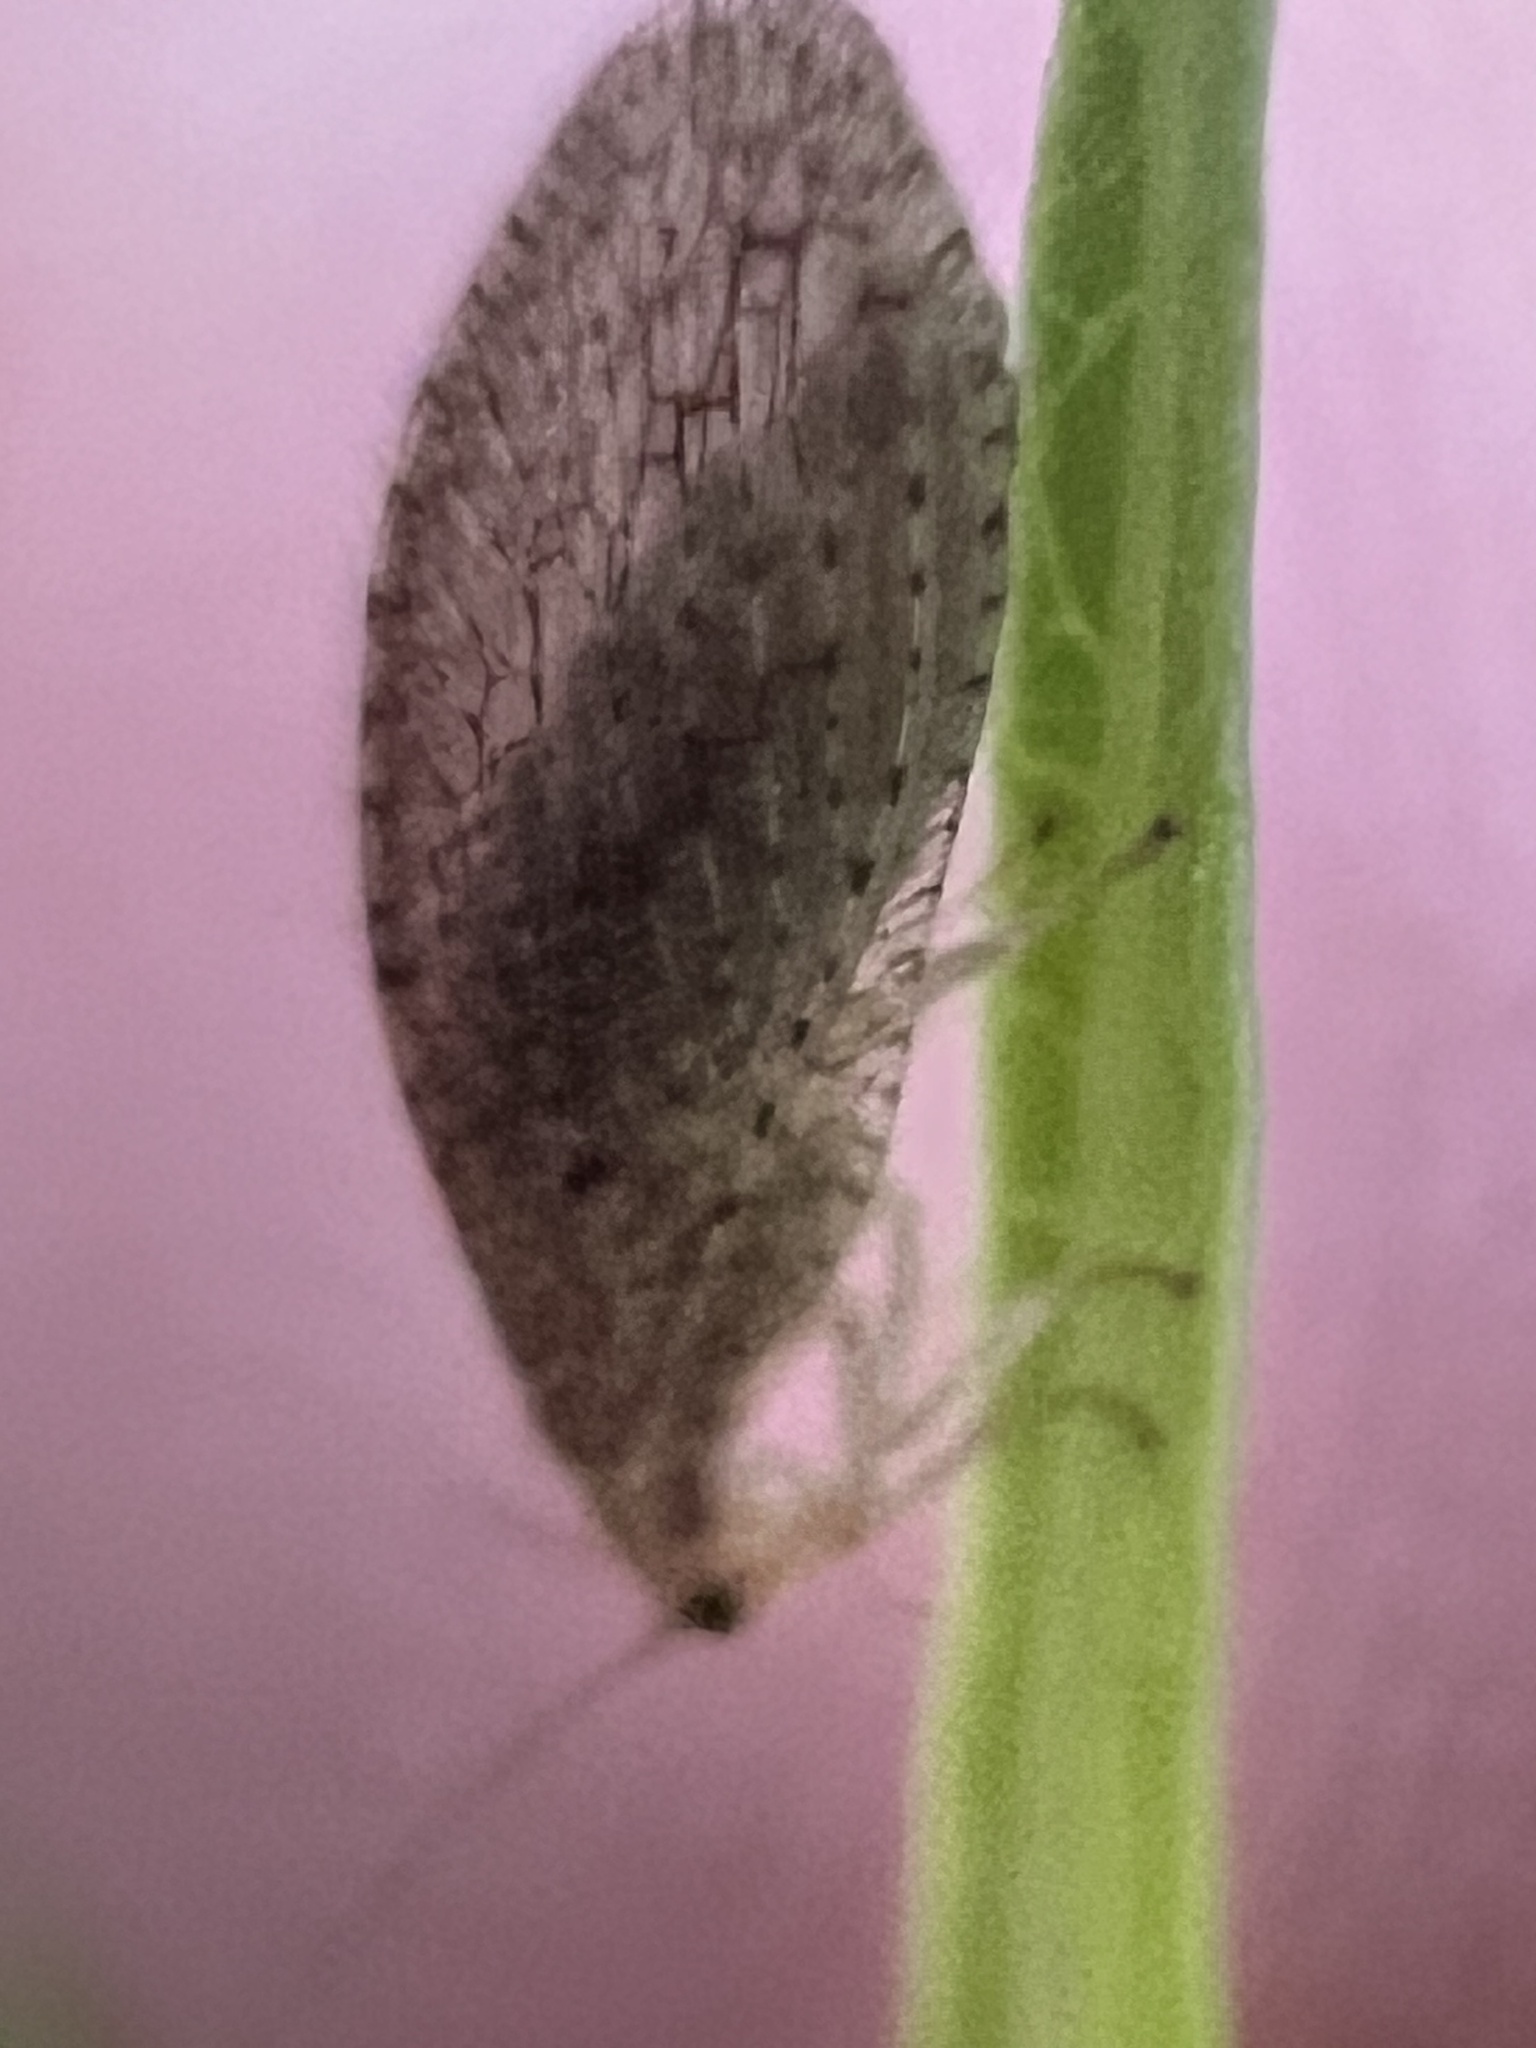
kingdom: Animalia
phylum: Arthropoda
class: Insecta
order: Neuroptera
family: Hemerobiidae
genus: Micromus
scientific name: Micromus tasmaniae
